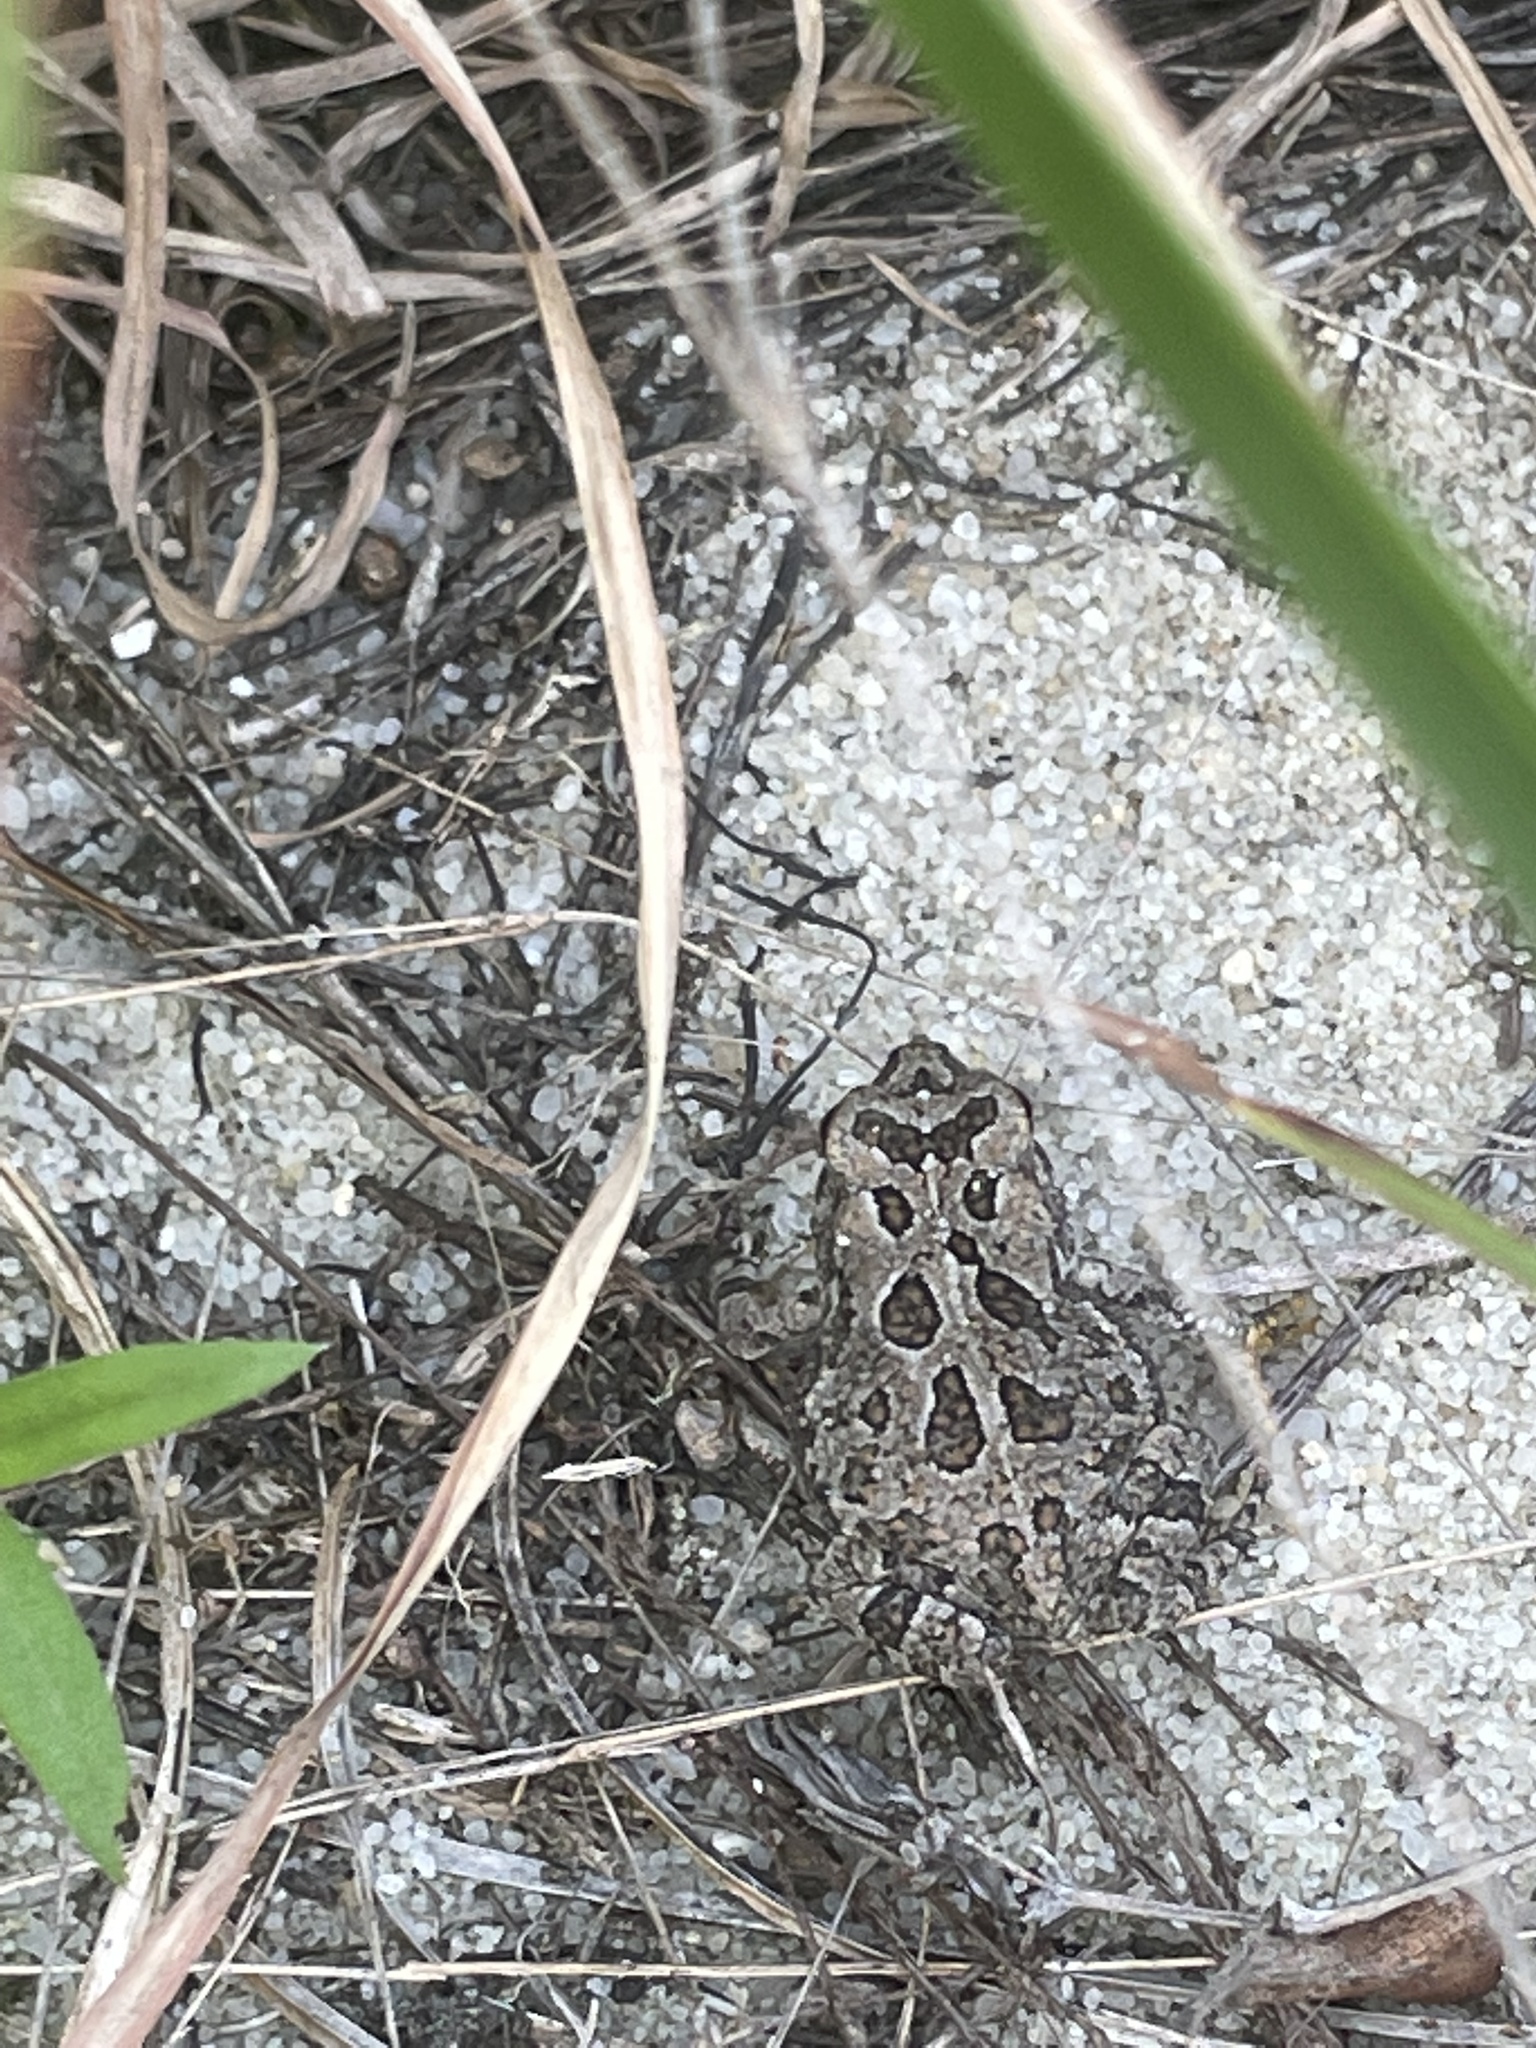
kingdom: Animalia
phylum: Chordata
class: Amphibia
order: Anura
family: Bufonidae
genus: Anaxyrus
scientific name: Anaxyrus fowleri
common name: Fowler's toad
